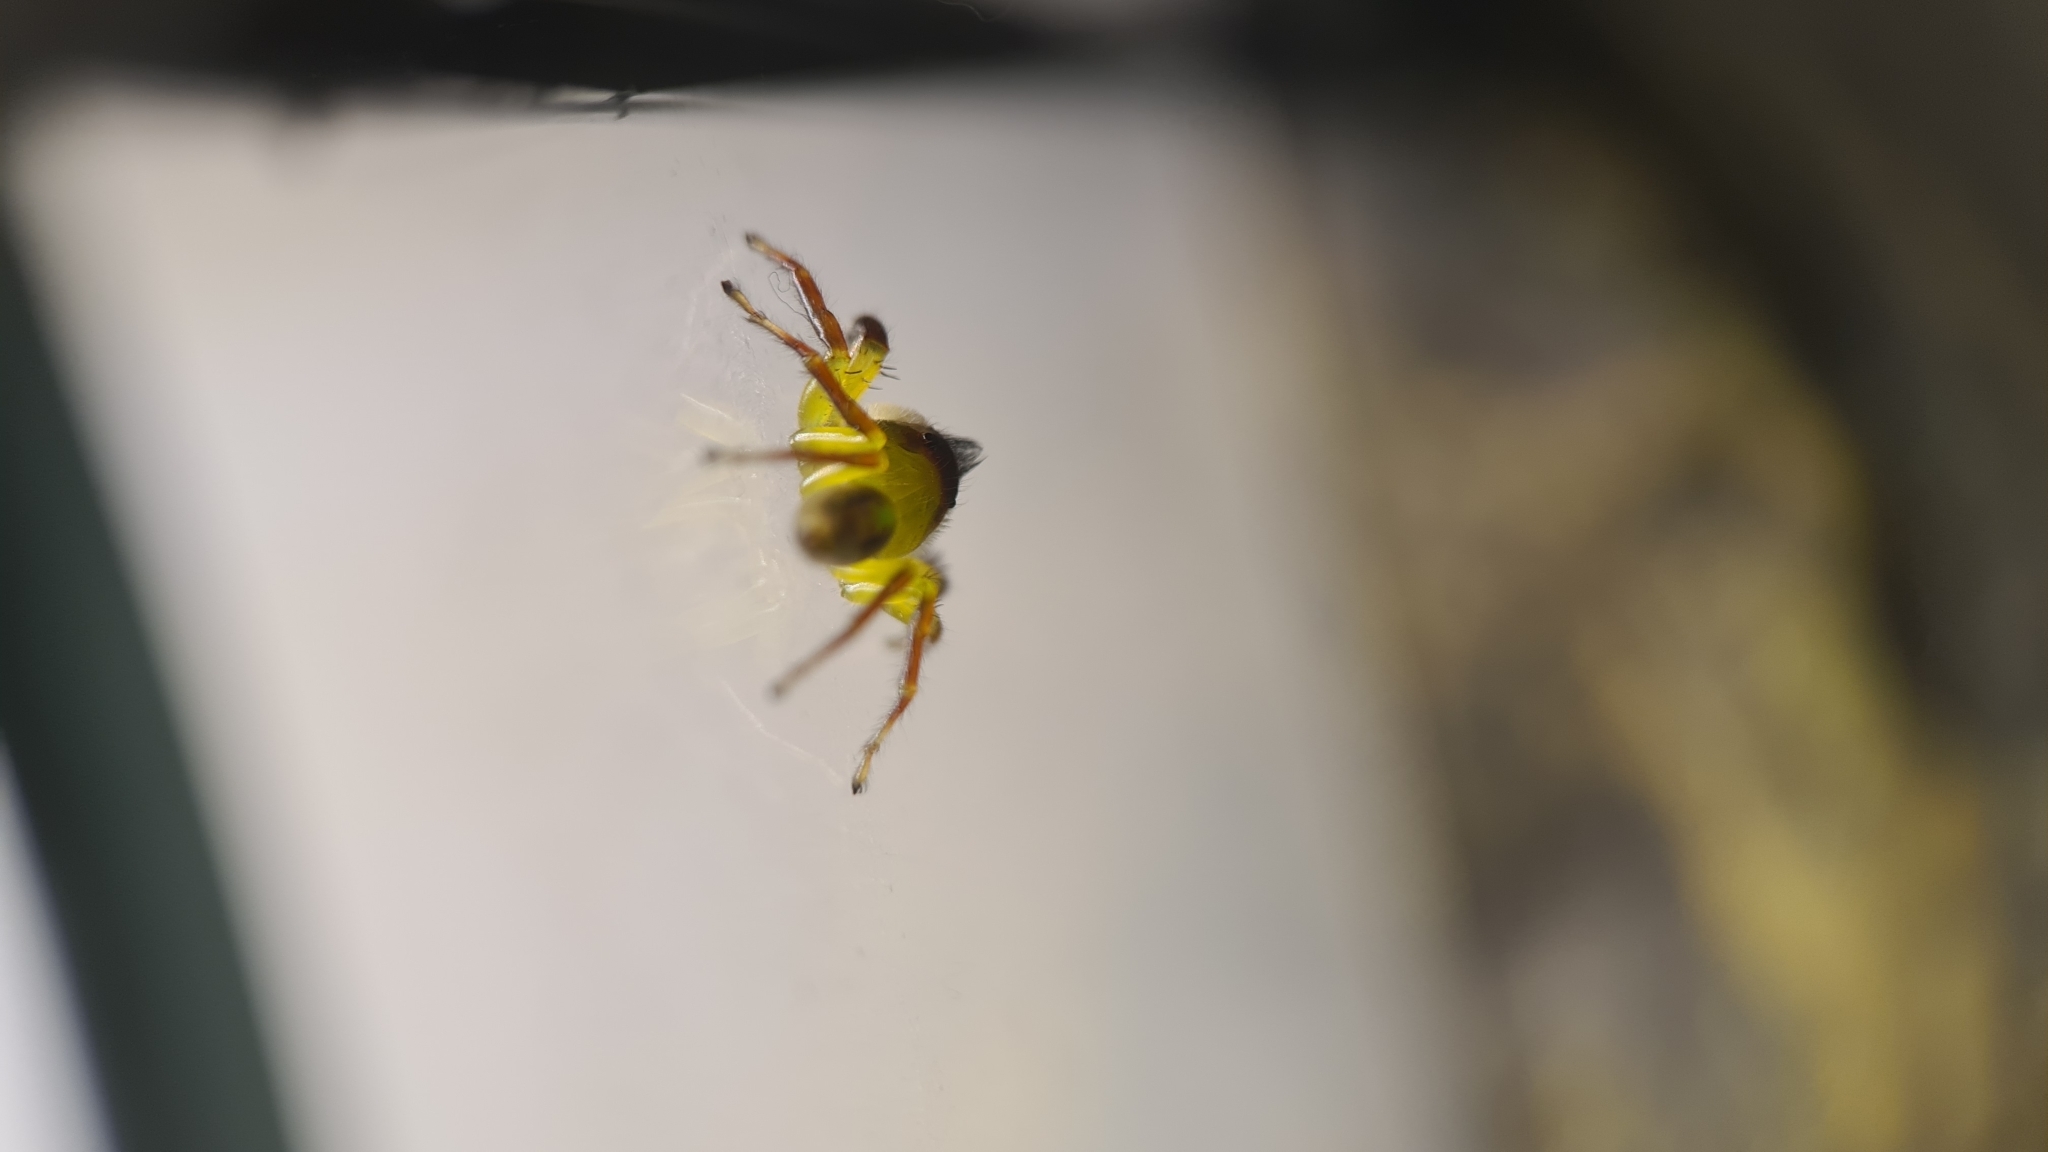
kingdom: Animalia
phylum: Arthropoda
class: Arachnida
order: Araneae
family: Salticidae
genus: Mopsus
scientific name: Mopsus mormon
